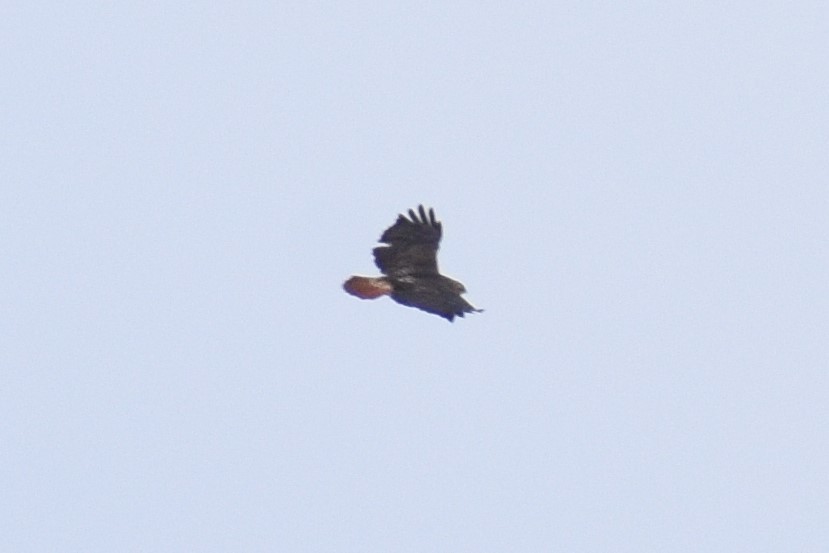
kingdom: Animalia
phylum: Chordata
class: Aves
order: Accipitriformes
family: Accipitridae
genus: Buteo
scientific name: Buteo jamaicensis
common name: Red-tailed hawk
